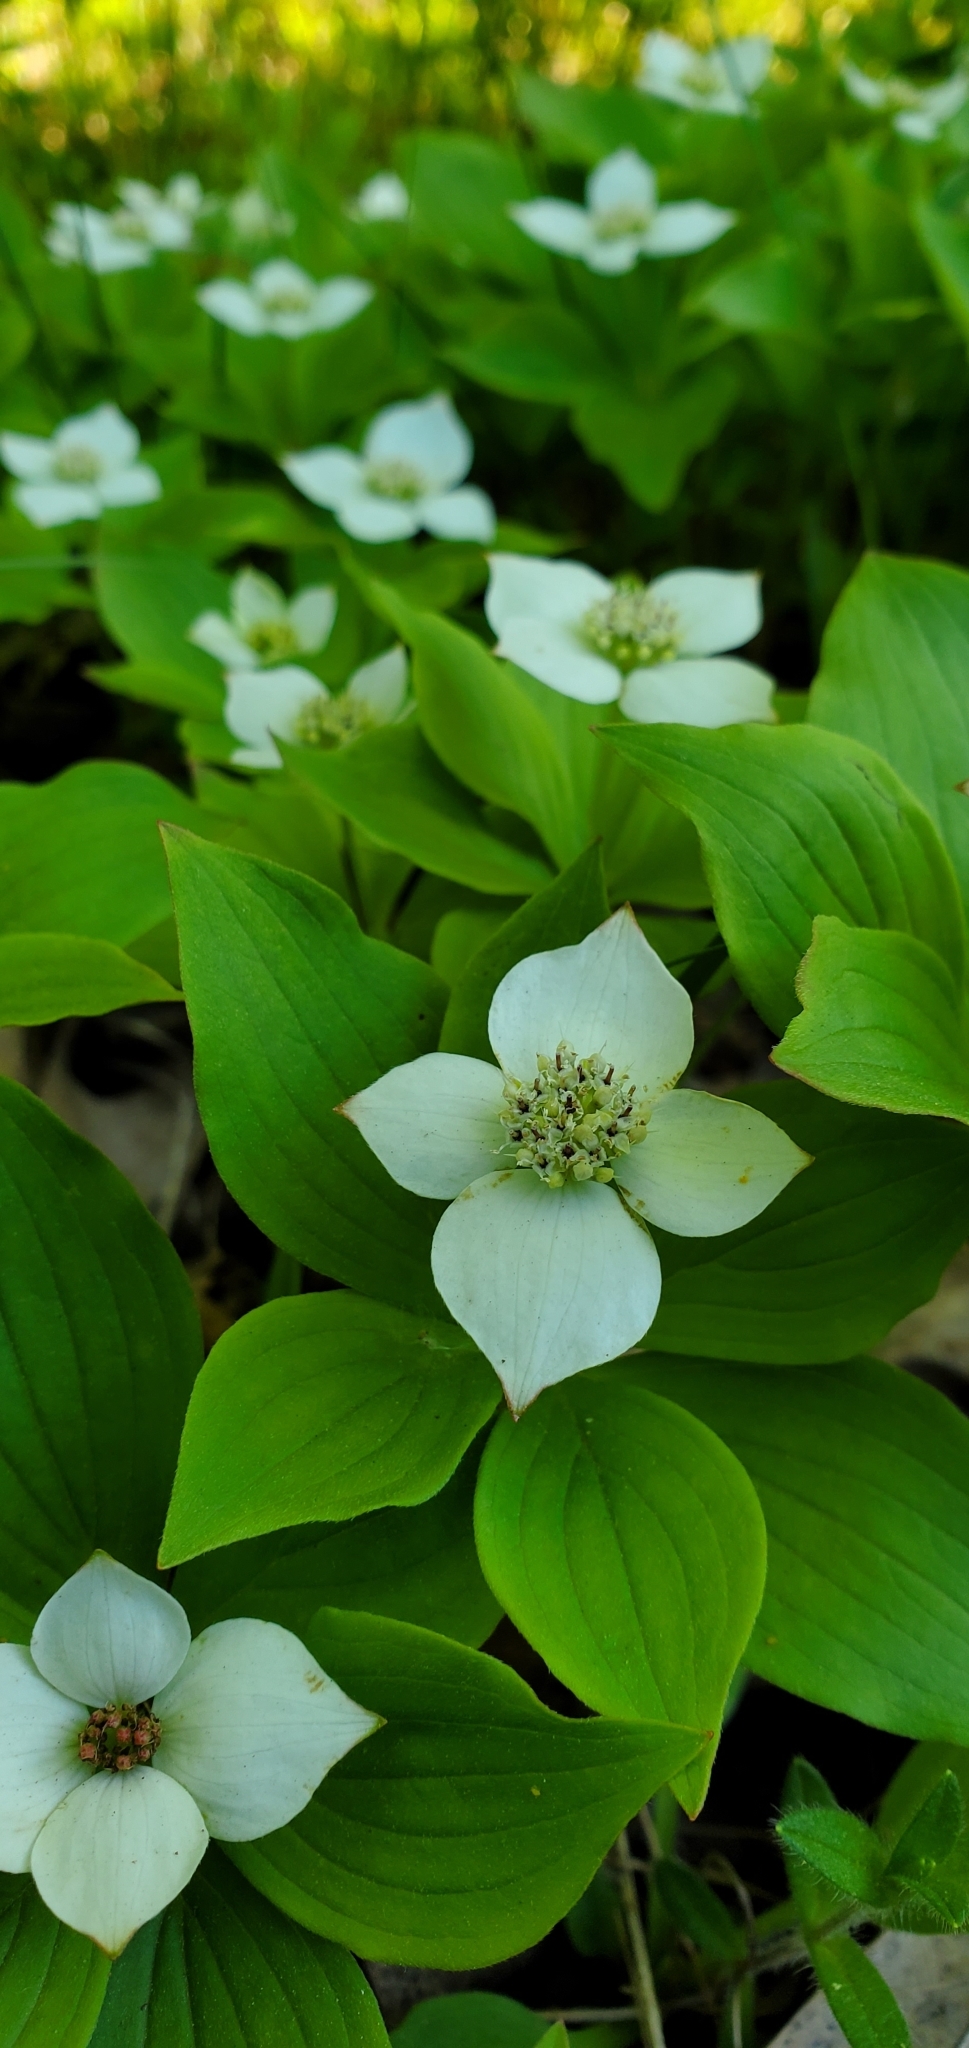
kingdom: Plantae
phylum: Tracheophyta
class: Magnoliopsida
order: Cornales
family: Cornaceae
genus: Cornus
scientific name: Cornus canadensis
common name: Creeping dogwood
